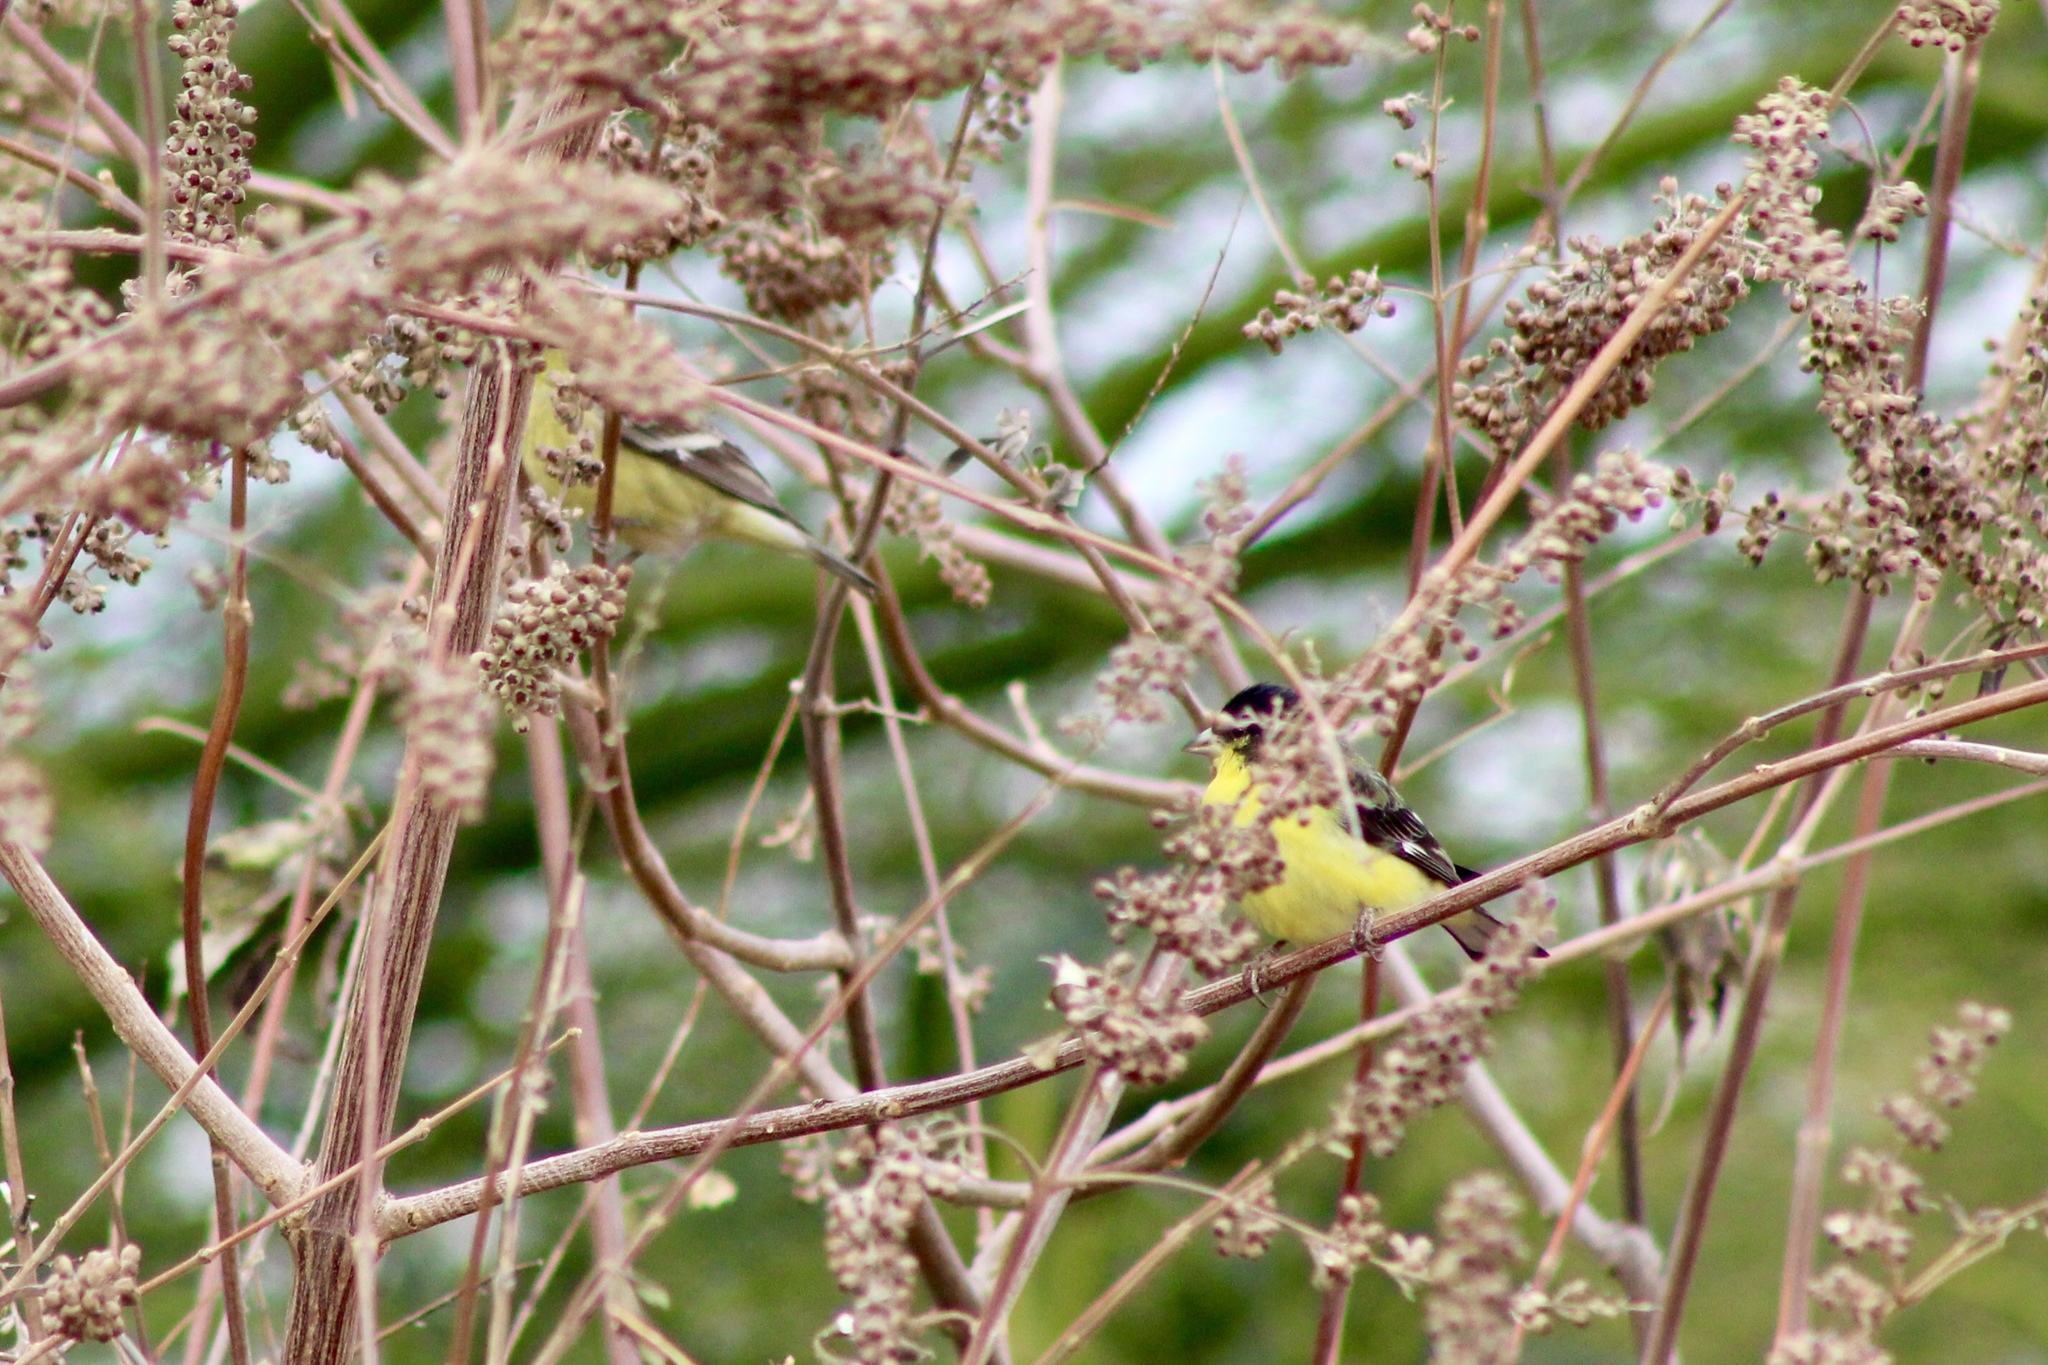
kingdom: Animalia
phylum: Chordata
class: Aves
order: Passeriformes
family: Fringillidae
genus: Spinus
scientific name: Spinus psaltria
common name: Lesser goldfinch
